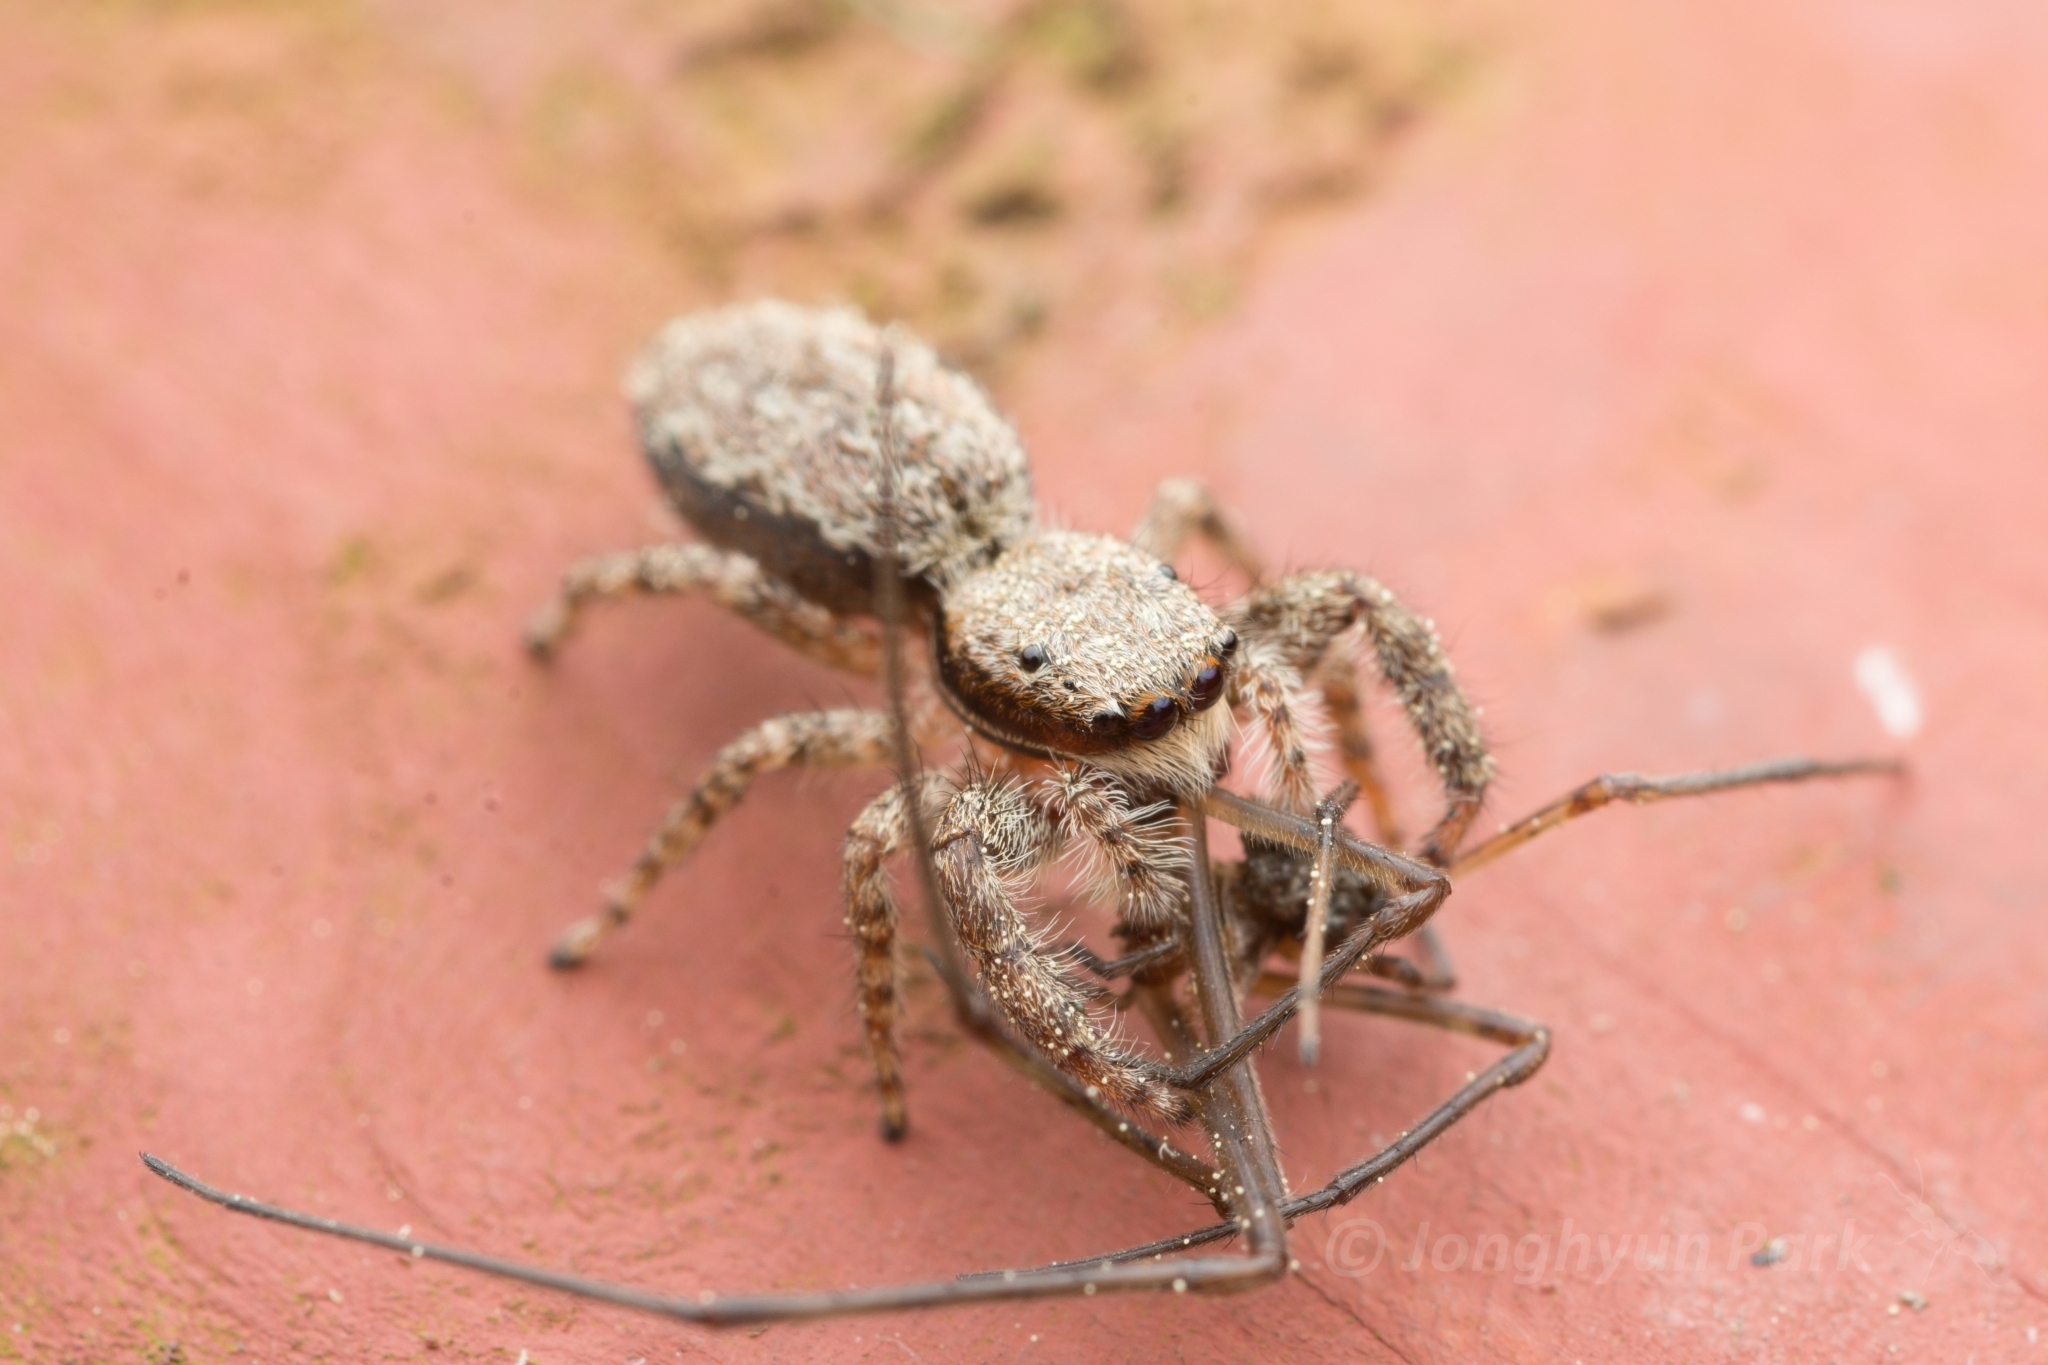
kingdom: Animalia
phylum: Arthropoda
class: Arachnida
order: Araneae
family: Salticidae
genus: Marpissa
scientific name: Marpissa milleri
